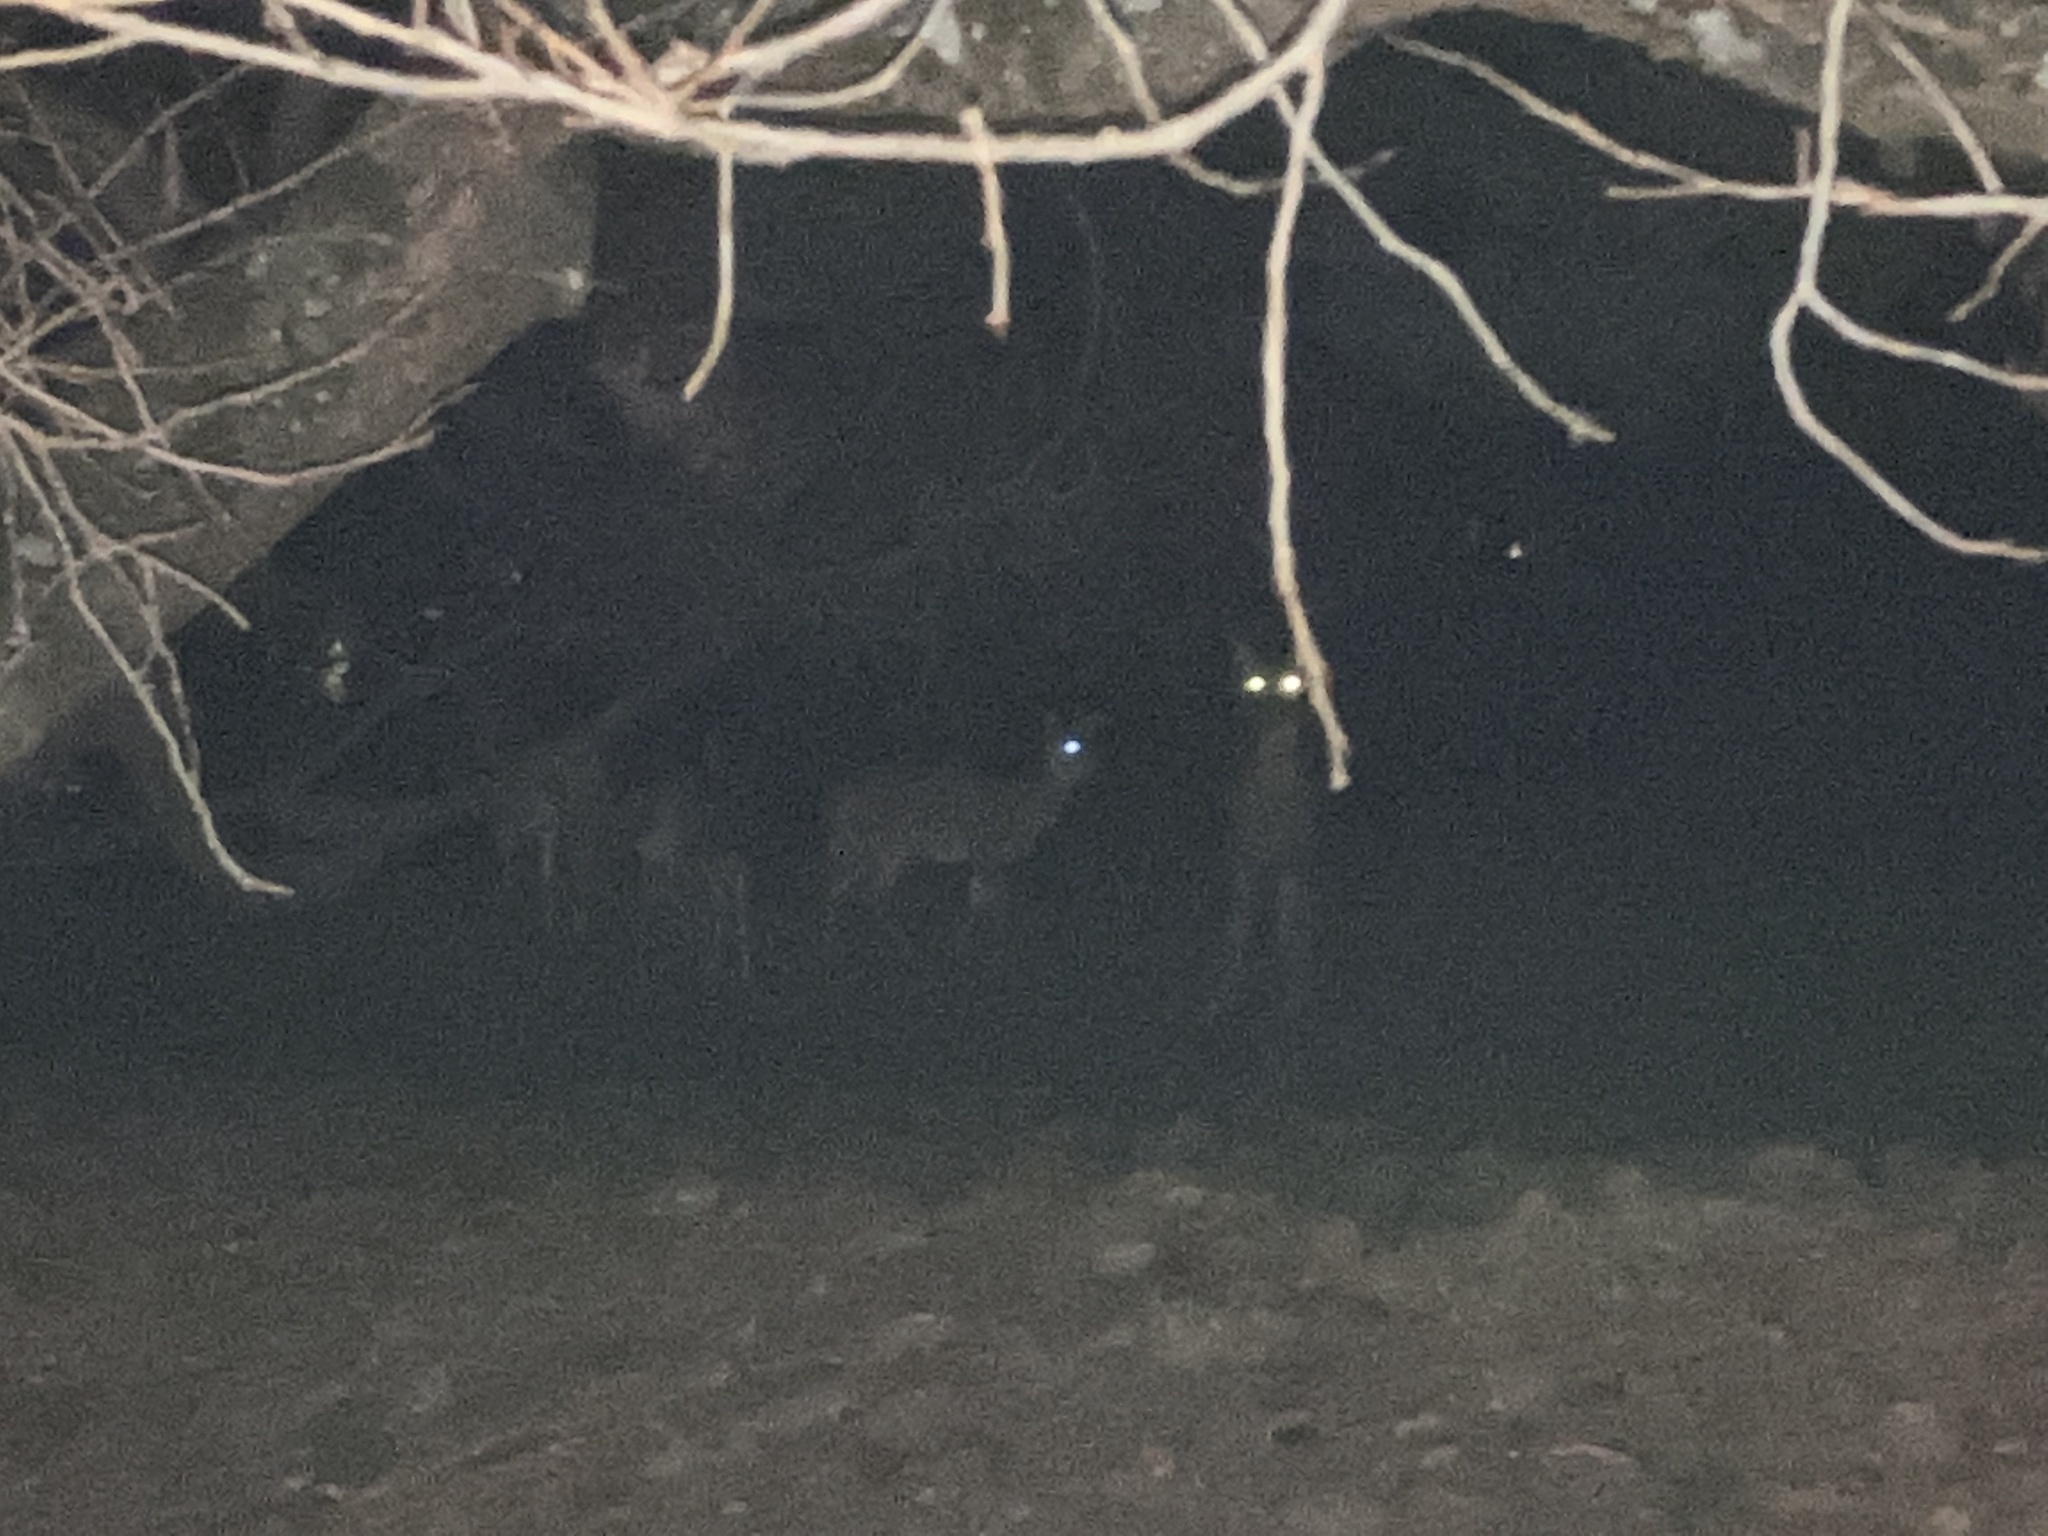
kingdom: Animalia
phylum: Chordata
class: Mammalia
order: Artiodactyla
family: Cervidae
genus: Odocoileus
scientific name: Odocoileus virginianus
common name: White-tailed deer
